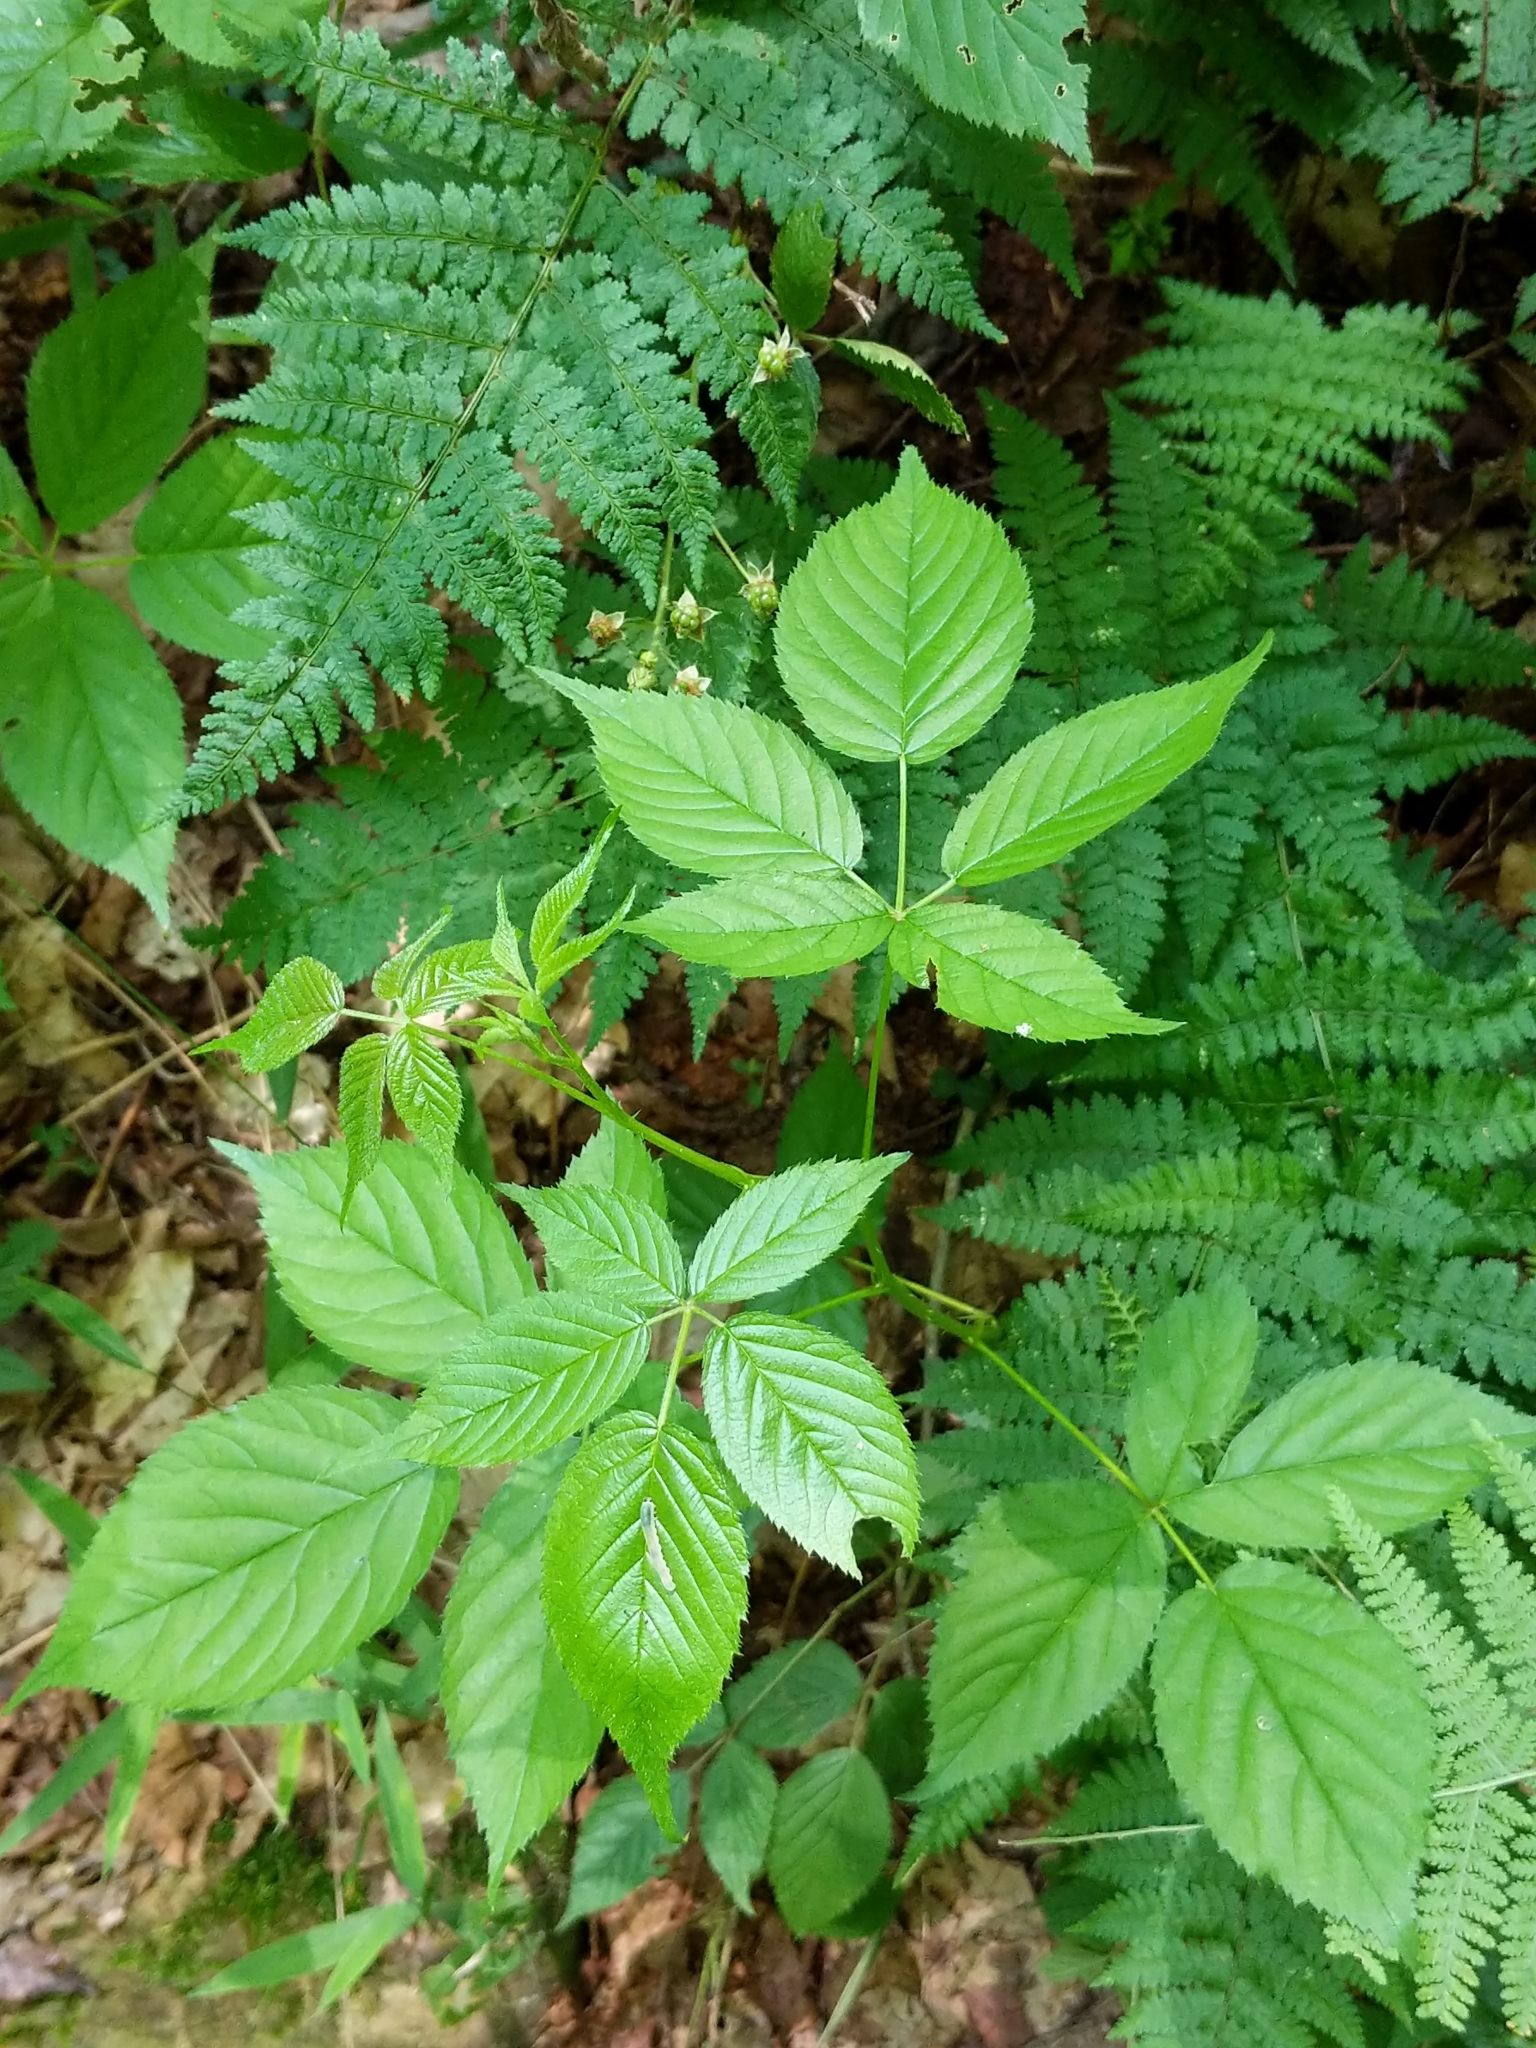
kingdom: Plantae
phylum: Tracheophyta
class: Magnoliopsida
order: Rosales
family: Rosaceae
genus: Rubus
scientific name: Rubus
